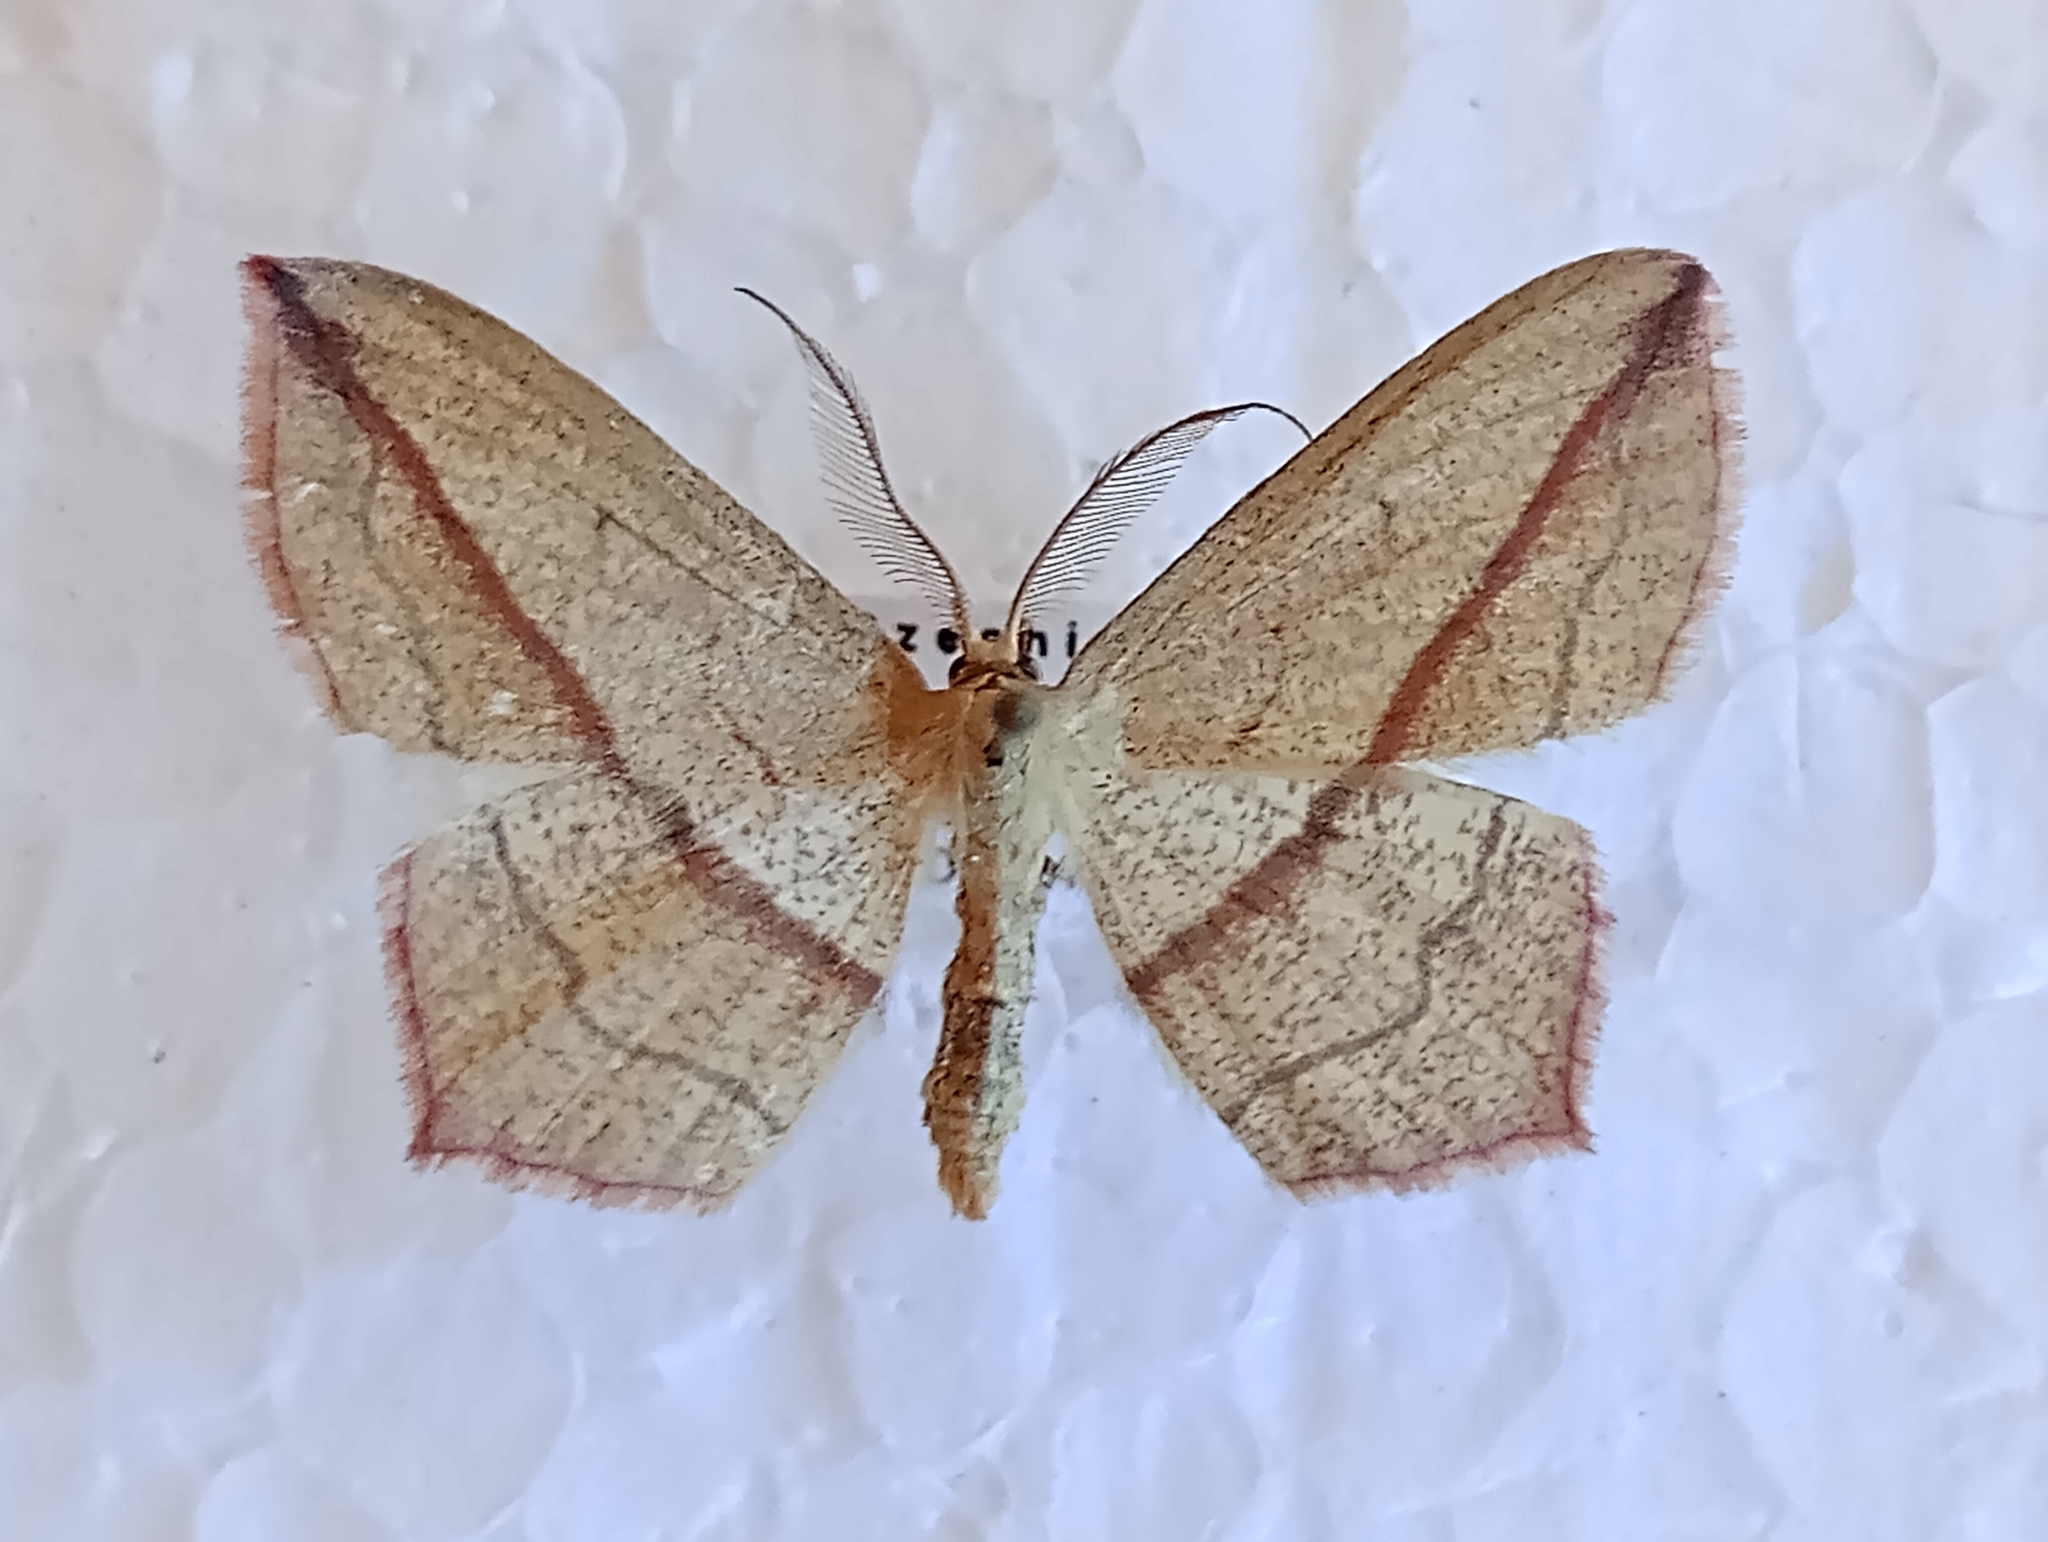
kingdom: Animalia
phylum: Arthropoda
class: Insecta
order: Lepidoptera
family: Geometridae
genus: Timandra
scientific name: Timandra comae
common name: Blood-vein
